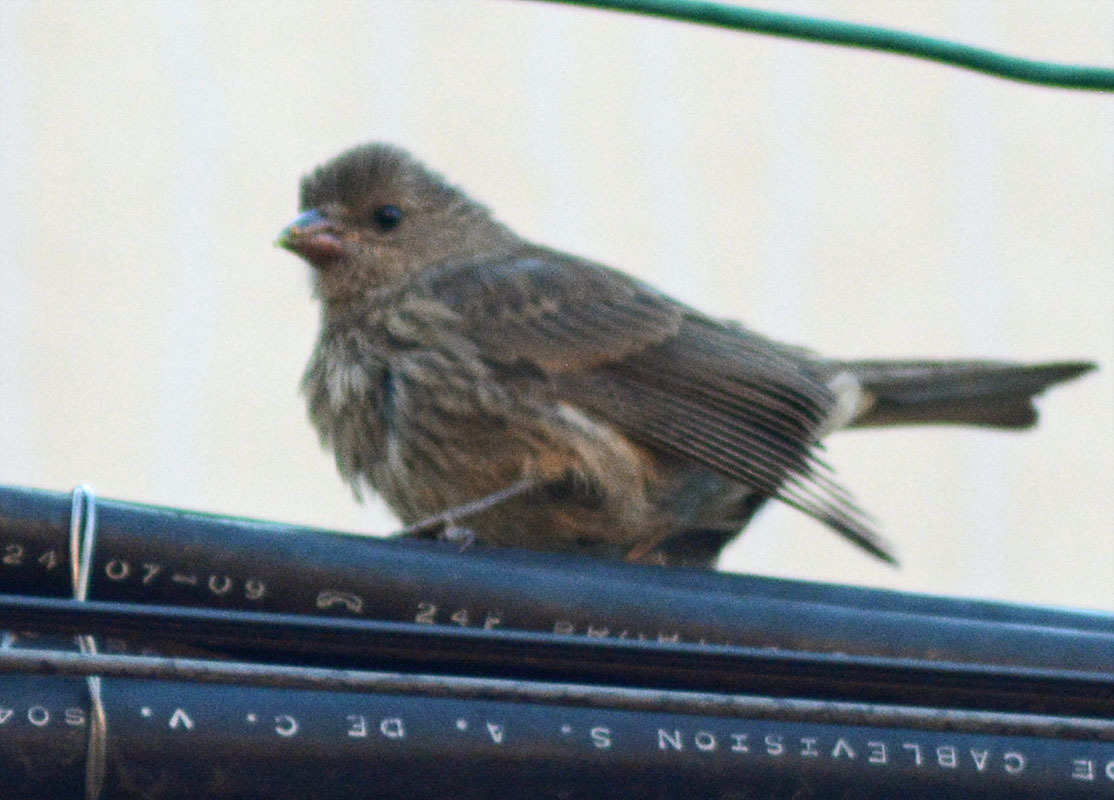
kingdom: Animalia
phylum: Chordata
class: Aves
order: Passeriformes
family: Fringillidae
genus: Haemorhous
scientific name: Haemorhous mexicanus
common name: House finch
